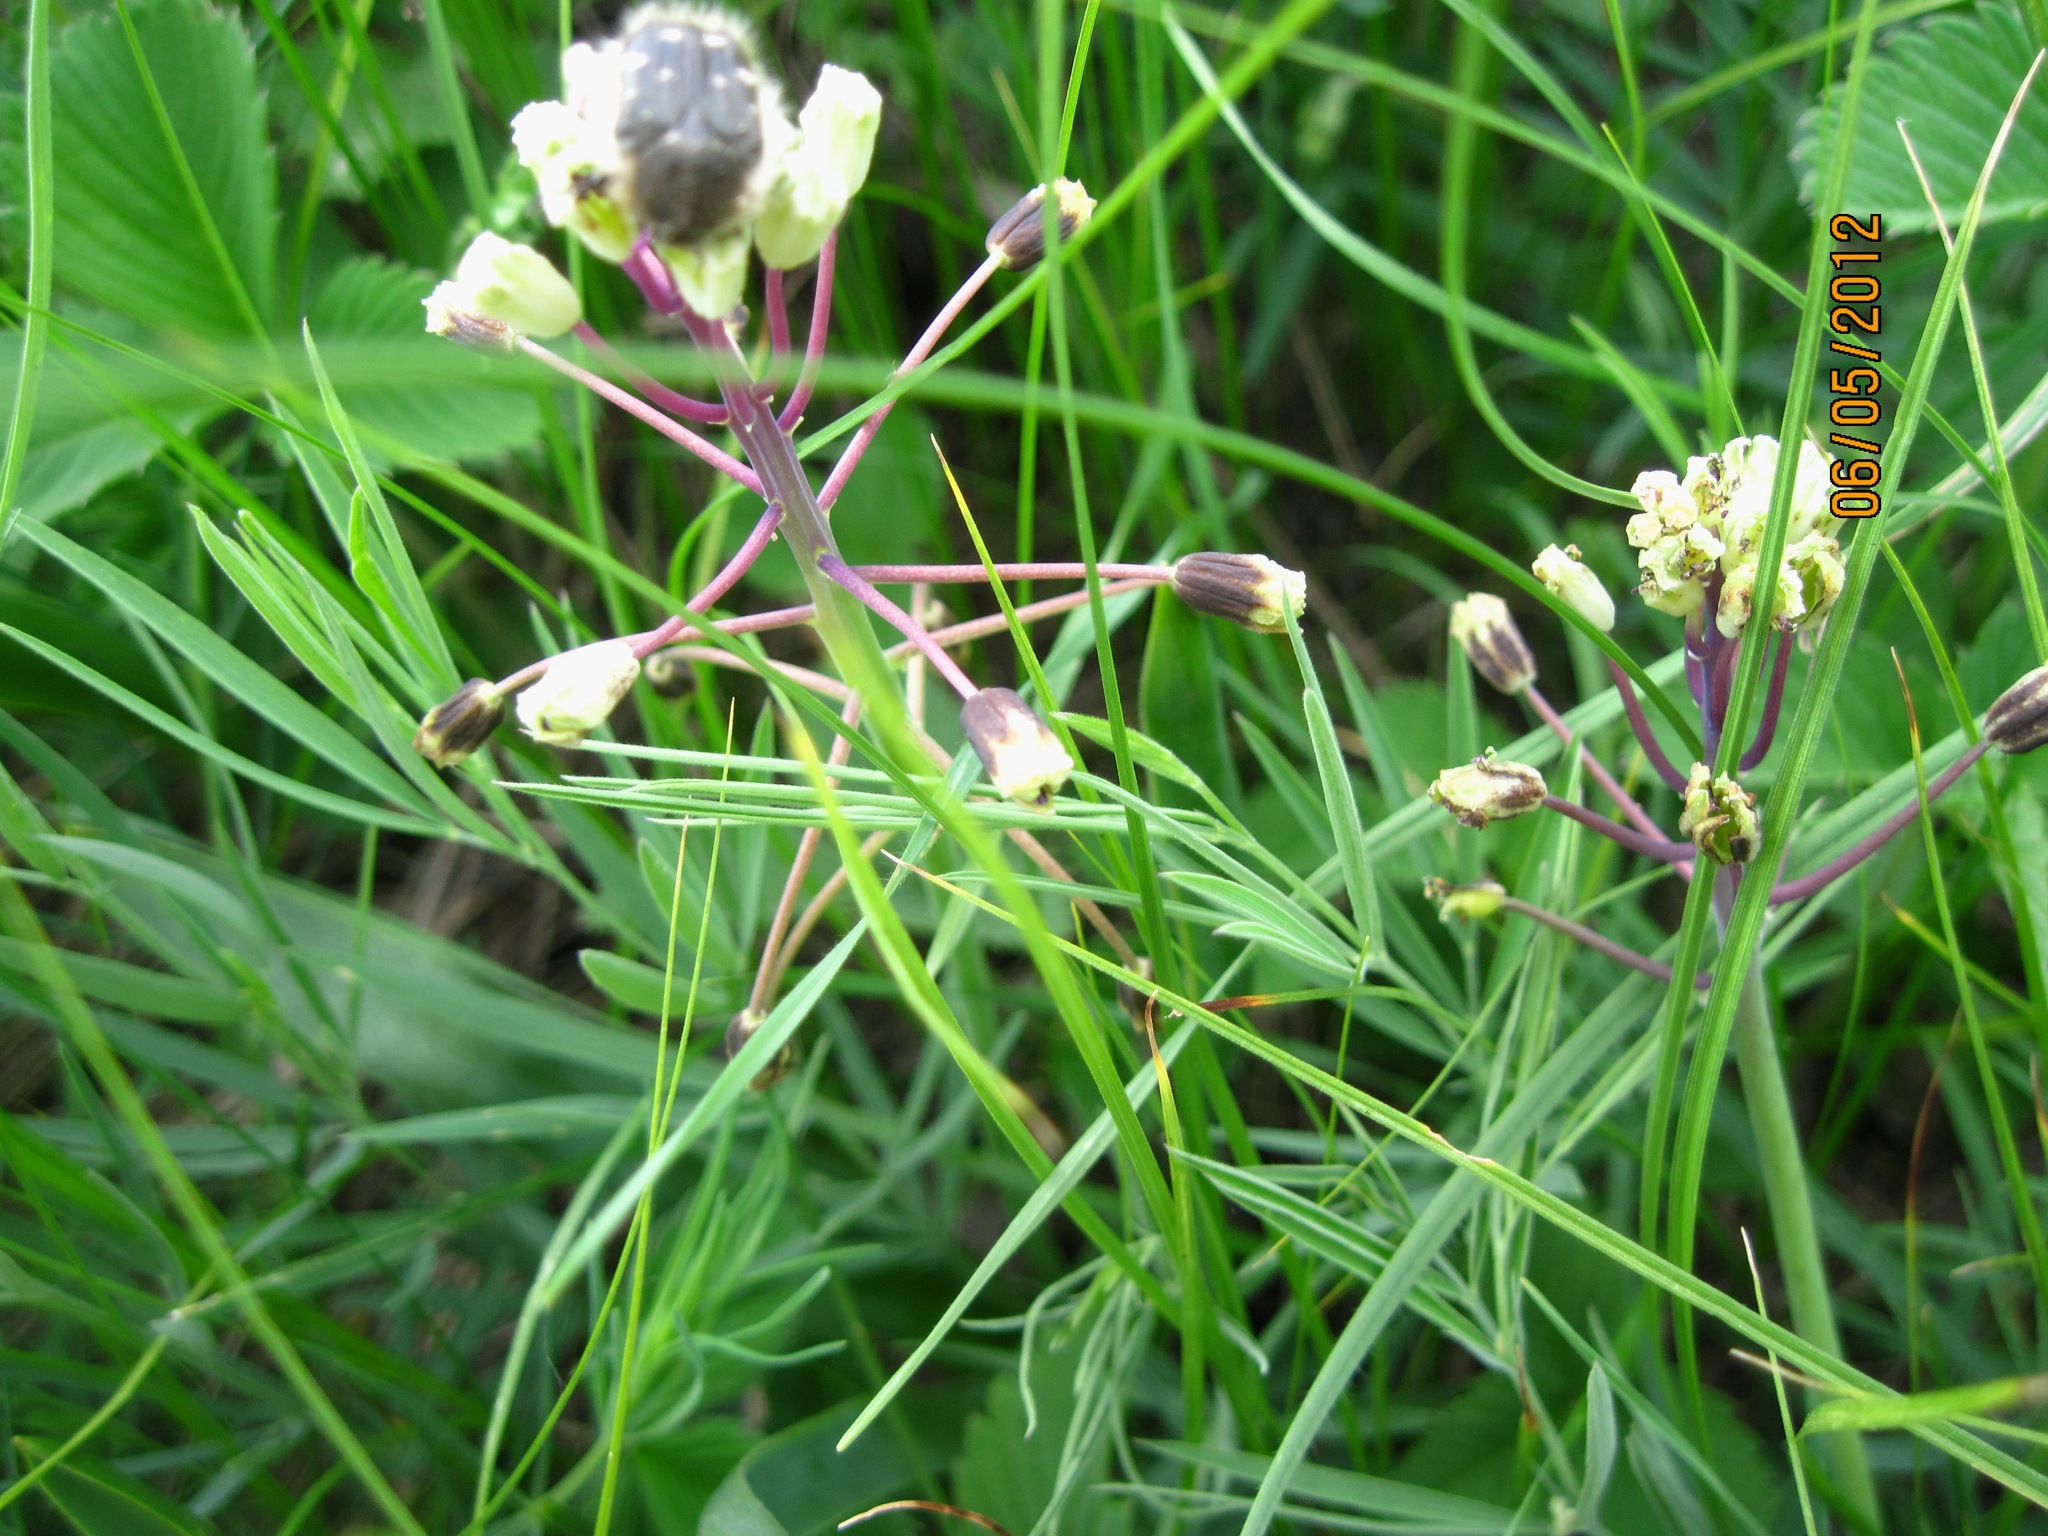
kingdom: Plantae
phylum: Tracheophyta
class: Liliopsida
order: Asparagales
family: Asparagaceae
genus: Bellevalia
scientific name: Bellevalia speciosa
